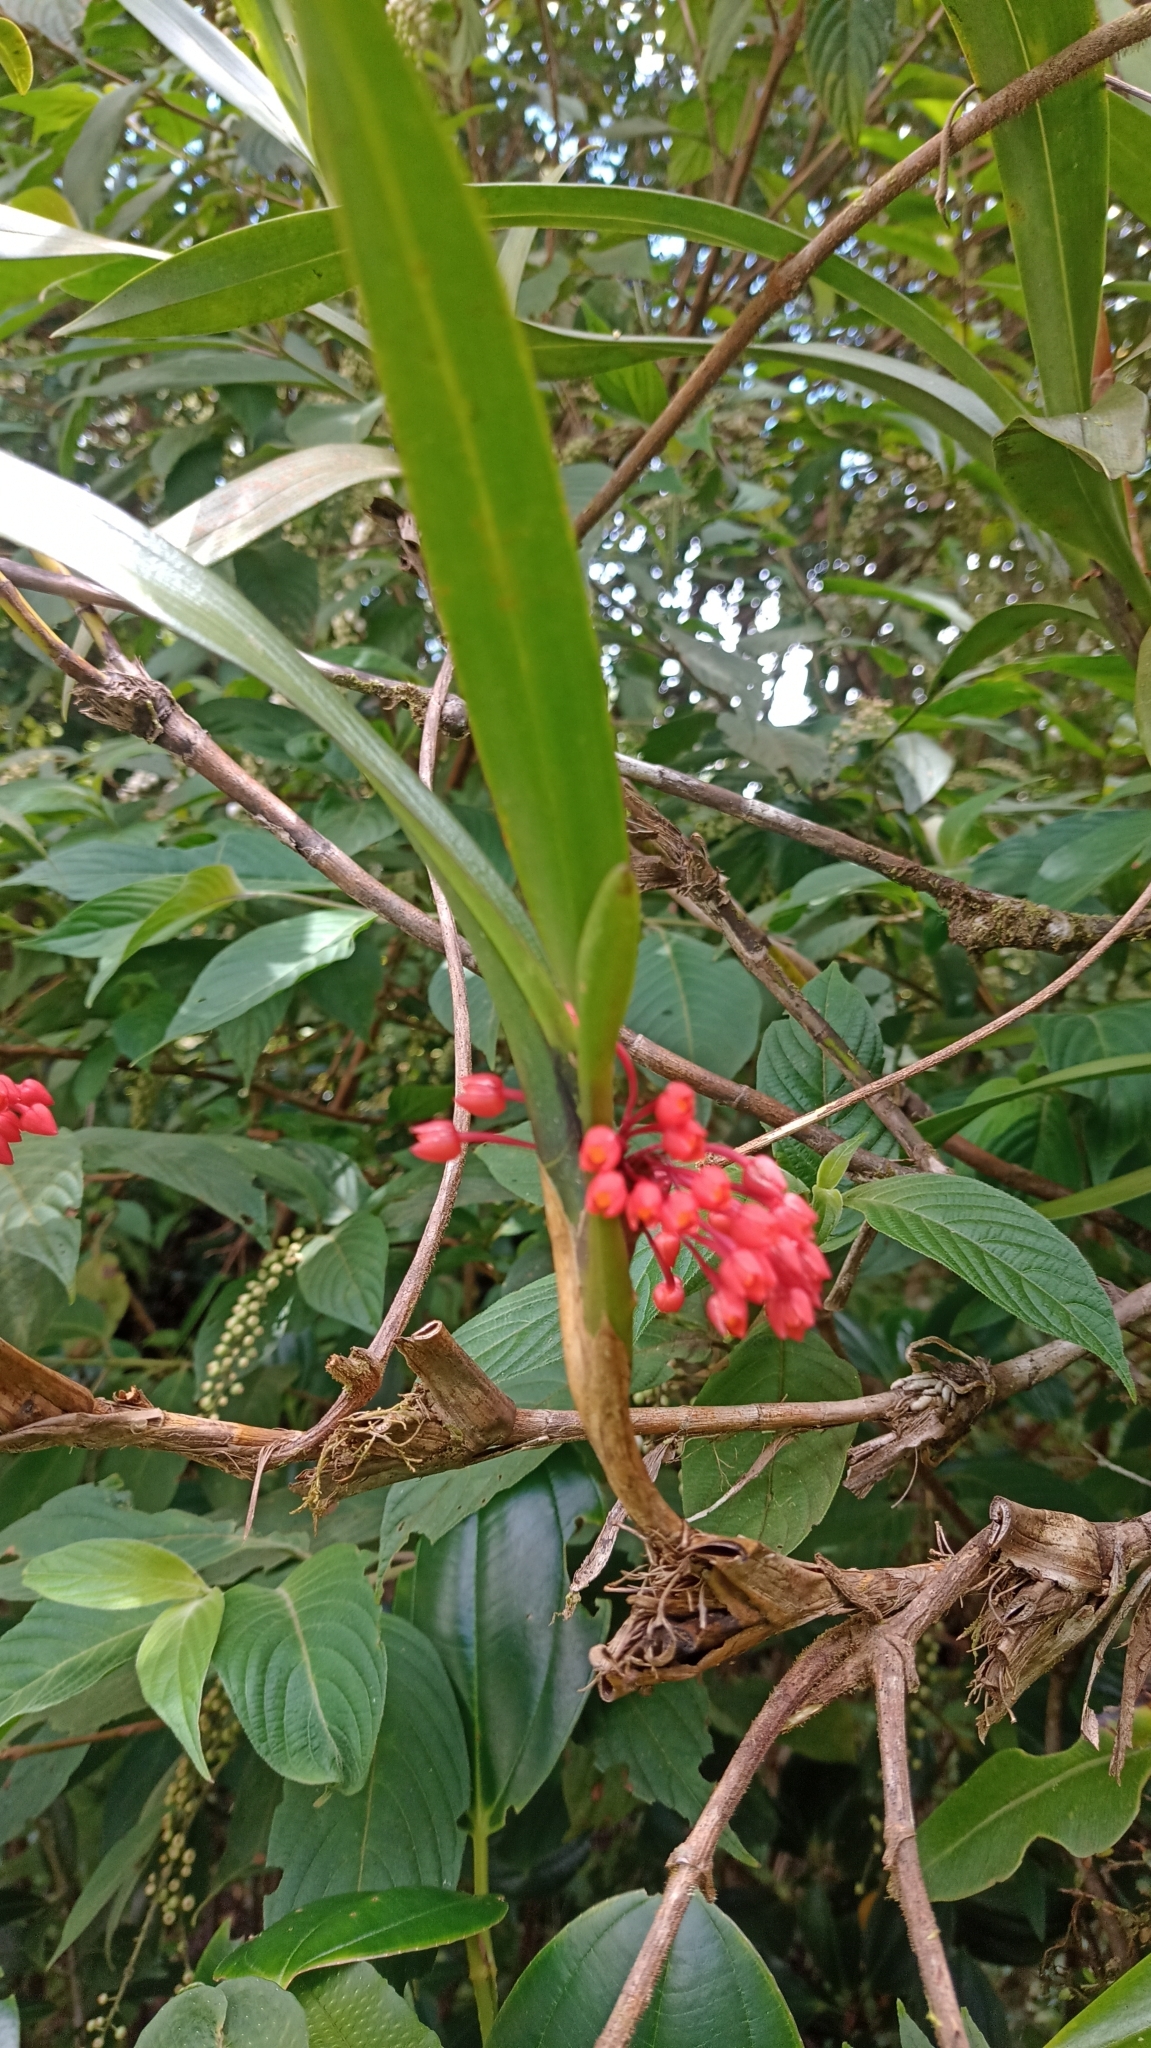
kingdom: Plantae
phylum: Tracheophyta
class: Liliopsida
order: Asparagales
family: Orchidaceae
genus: Maxillaria
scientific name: Maxillaria fulgens
